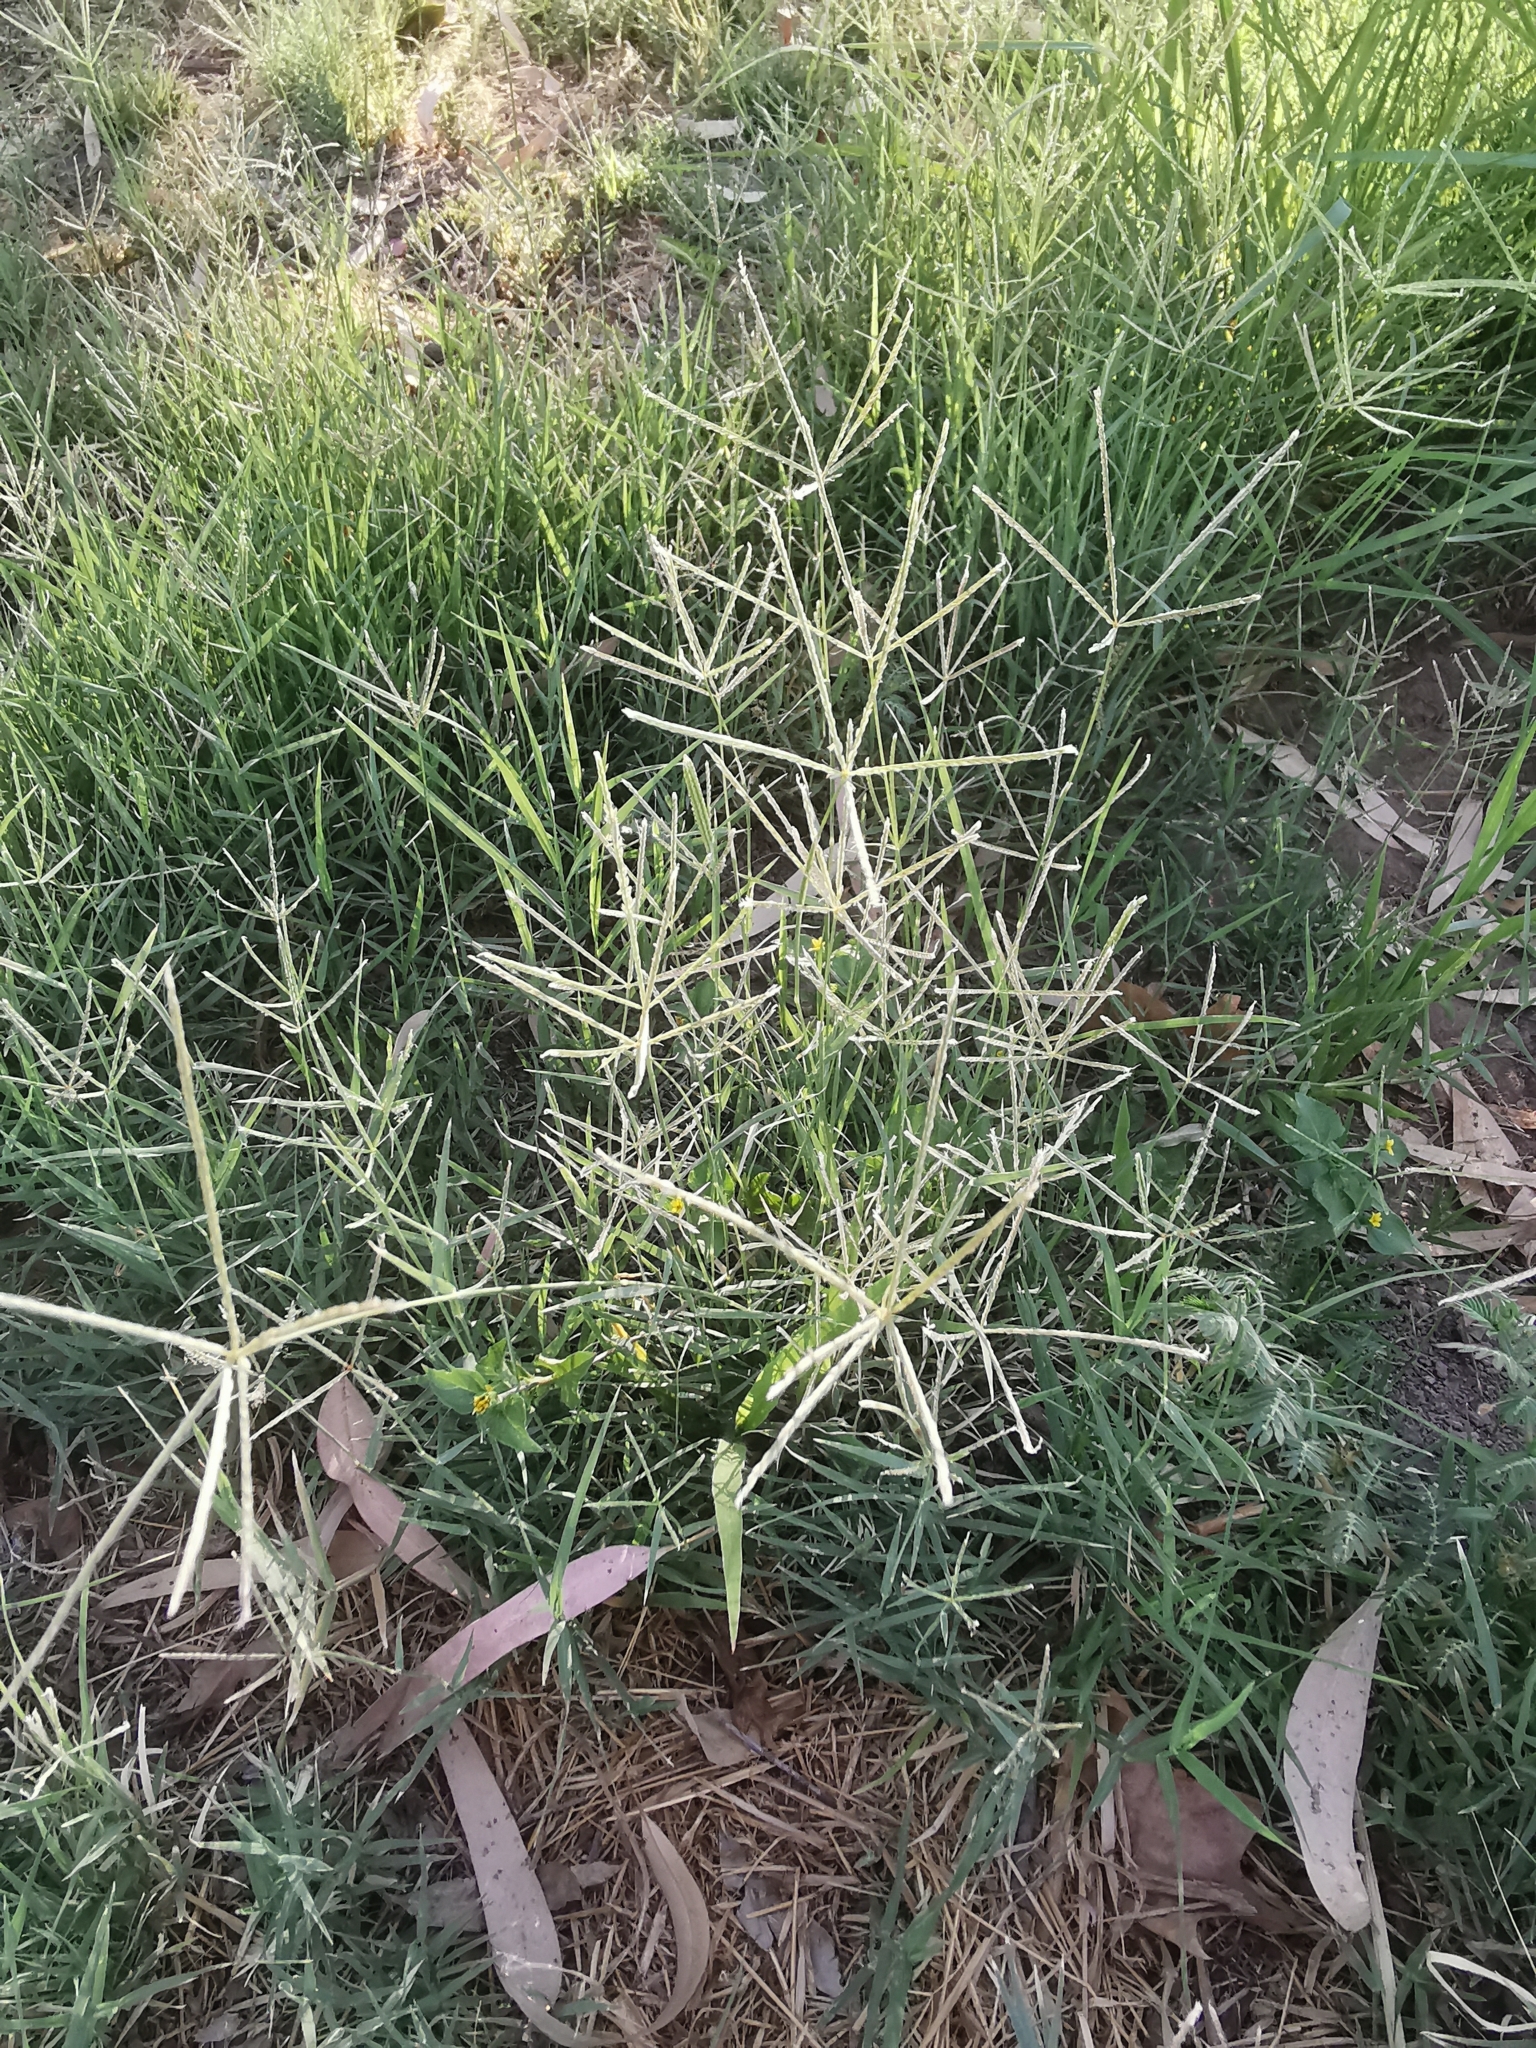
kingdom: Plantae
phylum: Tracheophyta
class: Liliopsida
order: Poales
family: Poaceae
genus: Cynodon
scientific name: Cynodon dactylon
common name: Bermuda grass
